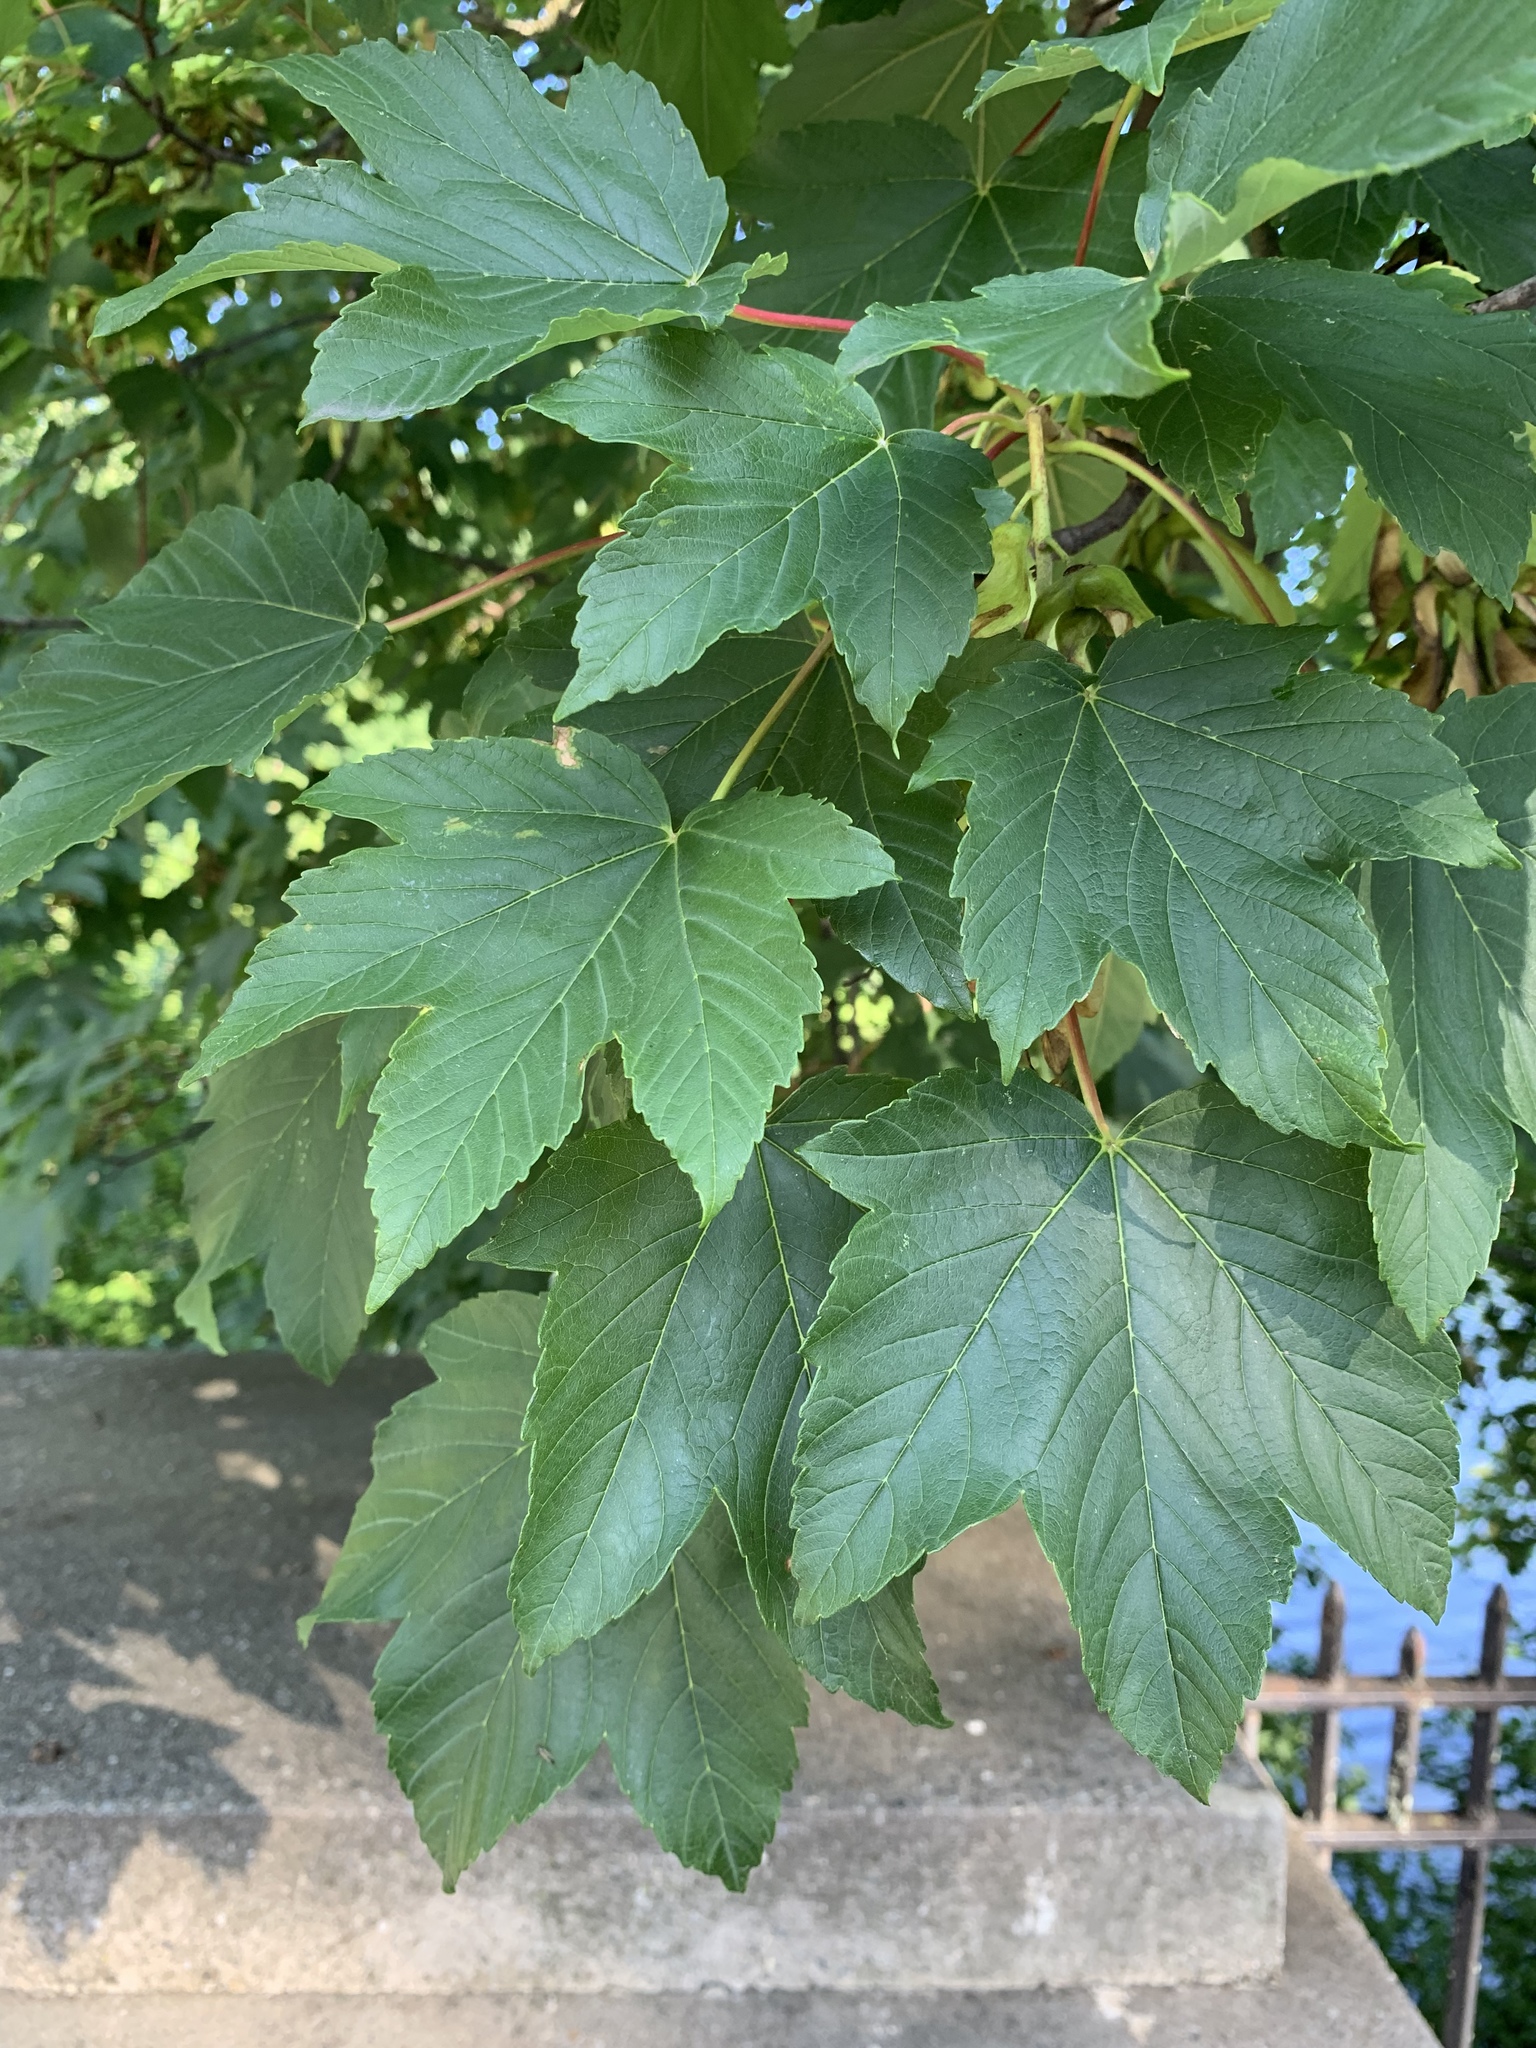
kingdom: Plantae
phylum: Tracheophyta
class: Magnoliopsida
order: Sapindales
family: Sapindaceae
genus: Acer
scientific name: Acer pseudoplatanus
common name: Sycamore
